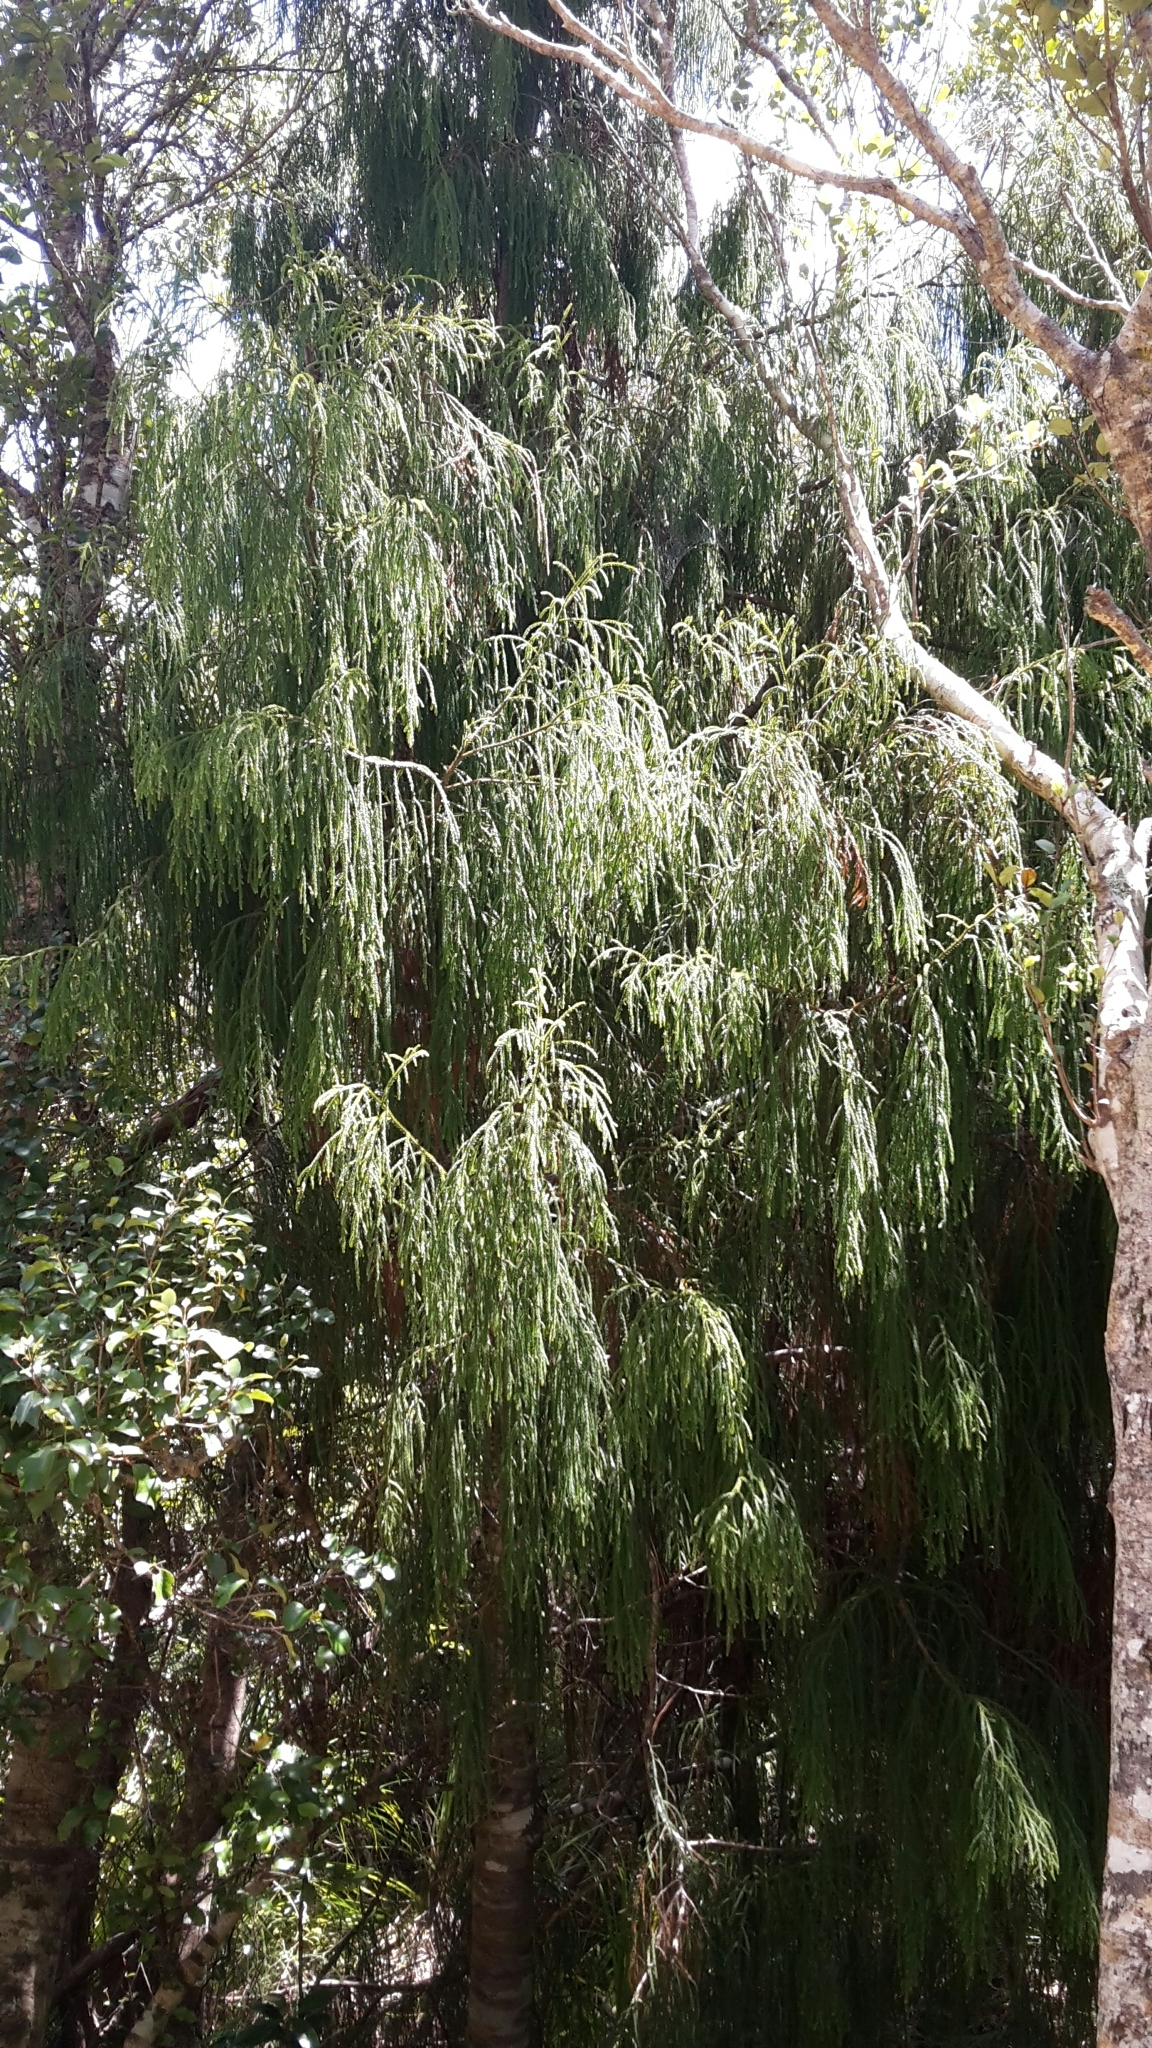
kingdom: Plantae
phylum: Tracheophyta
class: Pinopsida
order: Pinales
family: Podocarpaceae
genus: Dacrydium
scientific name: Dacrydium cupressinum
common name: Red pine
